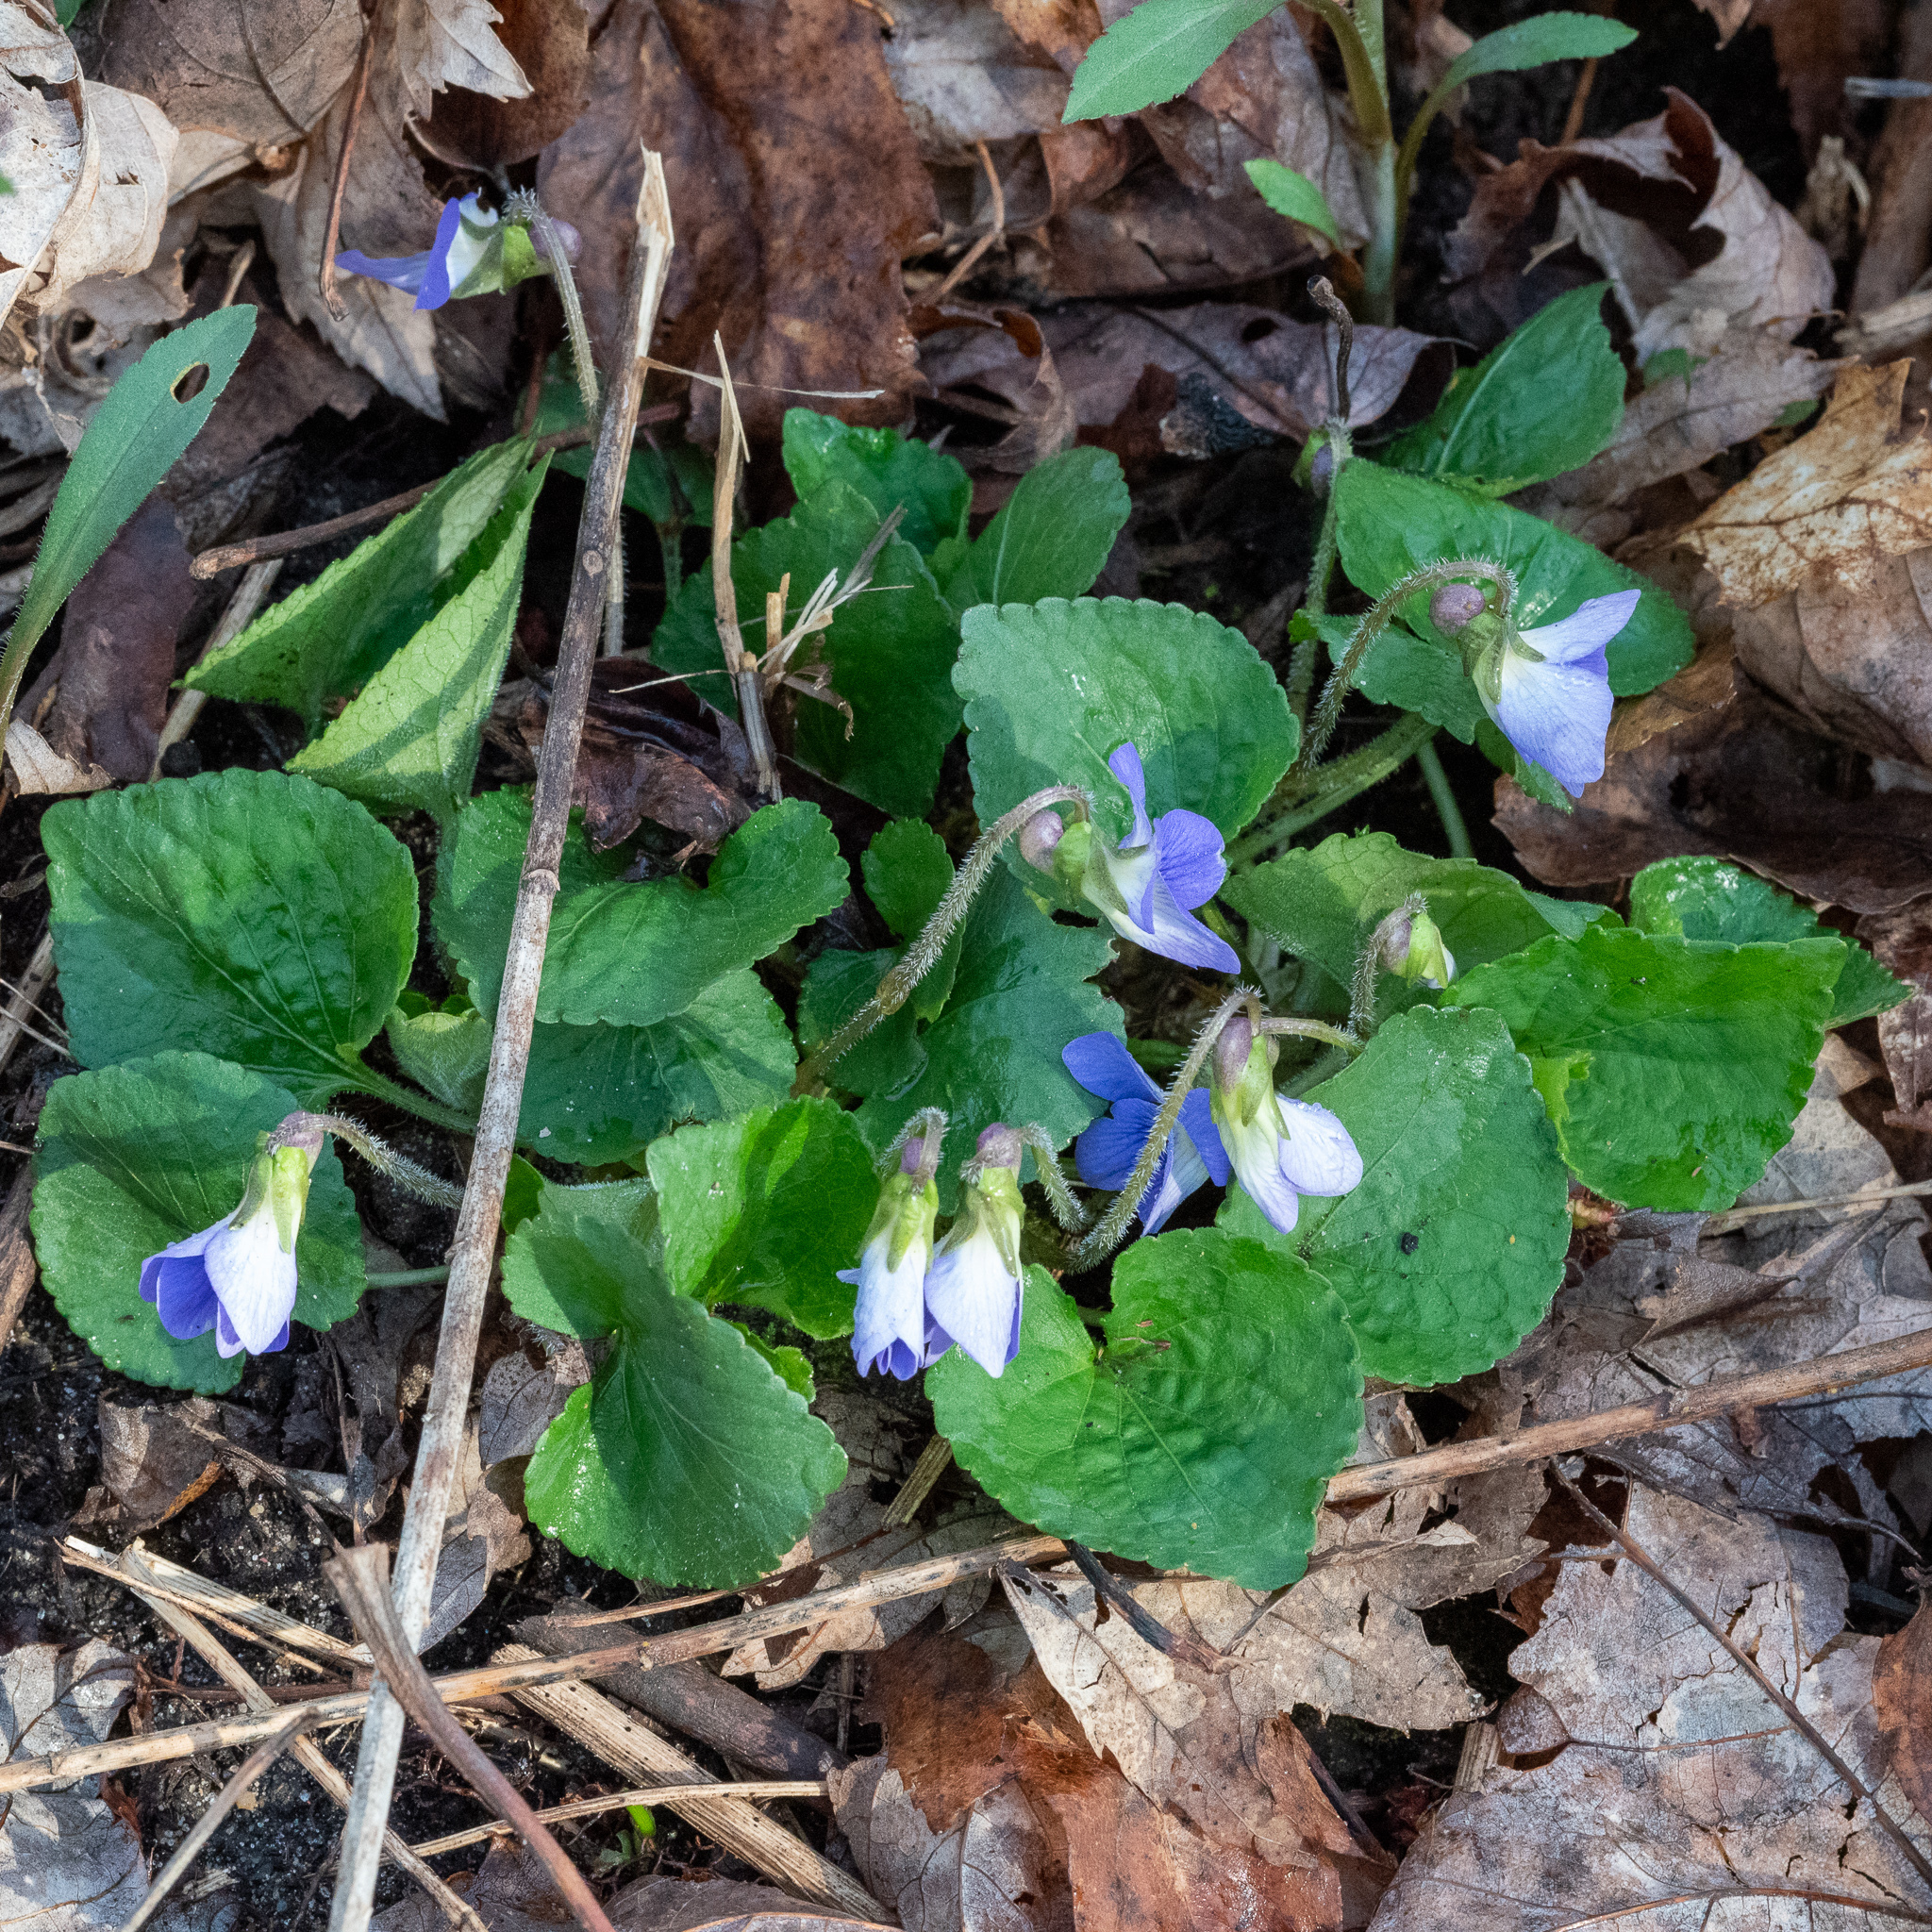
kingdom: Plantae
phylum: Tracheophyta
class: Magnoliopsida
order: Malpighiales
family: Violaceae
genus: Viola
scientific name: Viola sororia
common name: Dooryard violet
